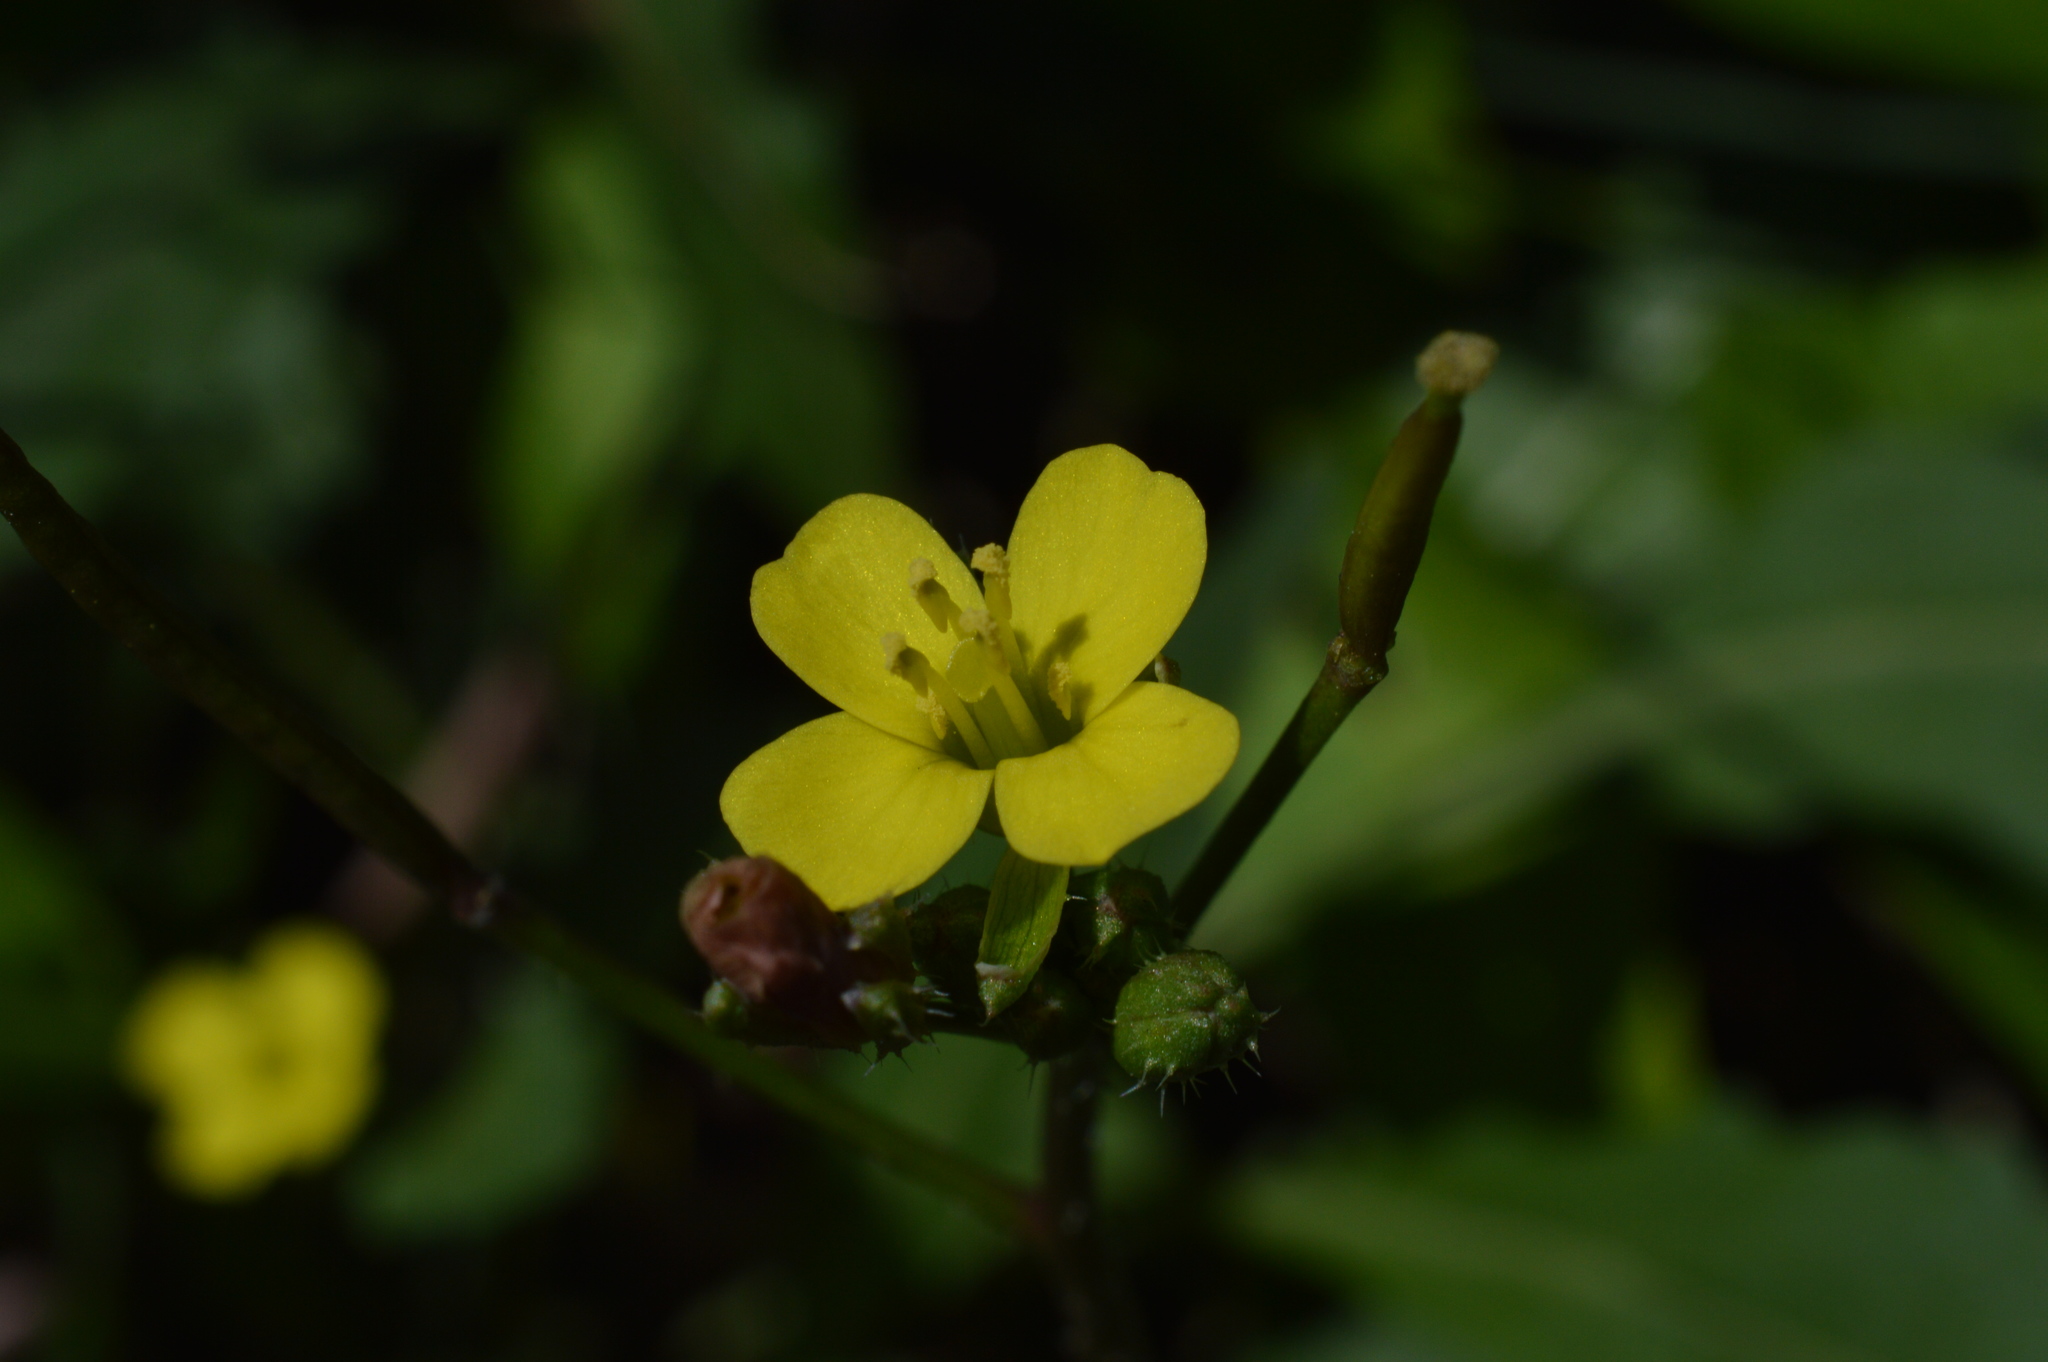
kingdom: Plantae
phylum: Tracheophyta
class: Magnoliopsida
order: Brassicales
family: Brassicaceae
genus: Diplotaxis
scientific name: Diplotaxis muralis
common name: Annual wall-rocket
